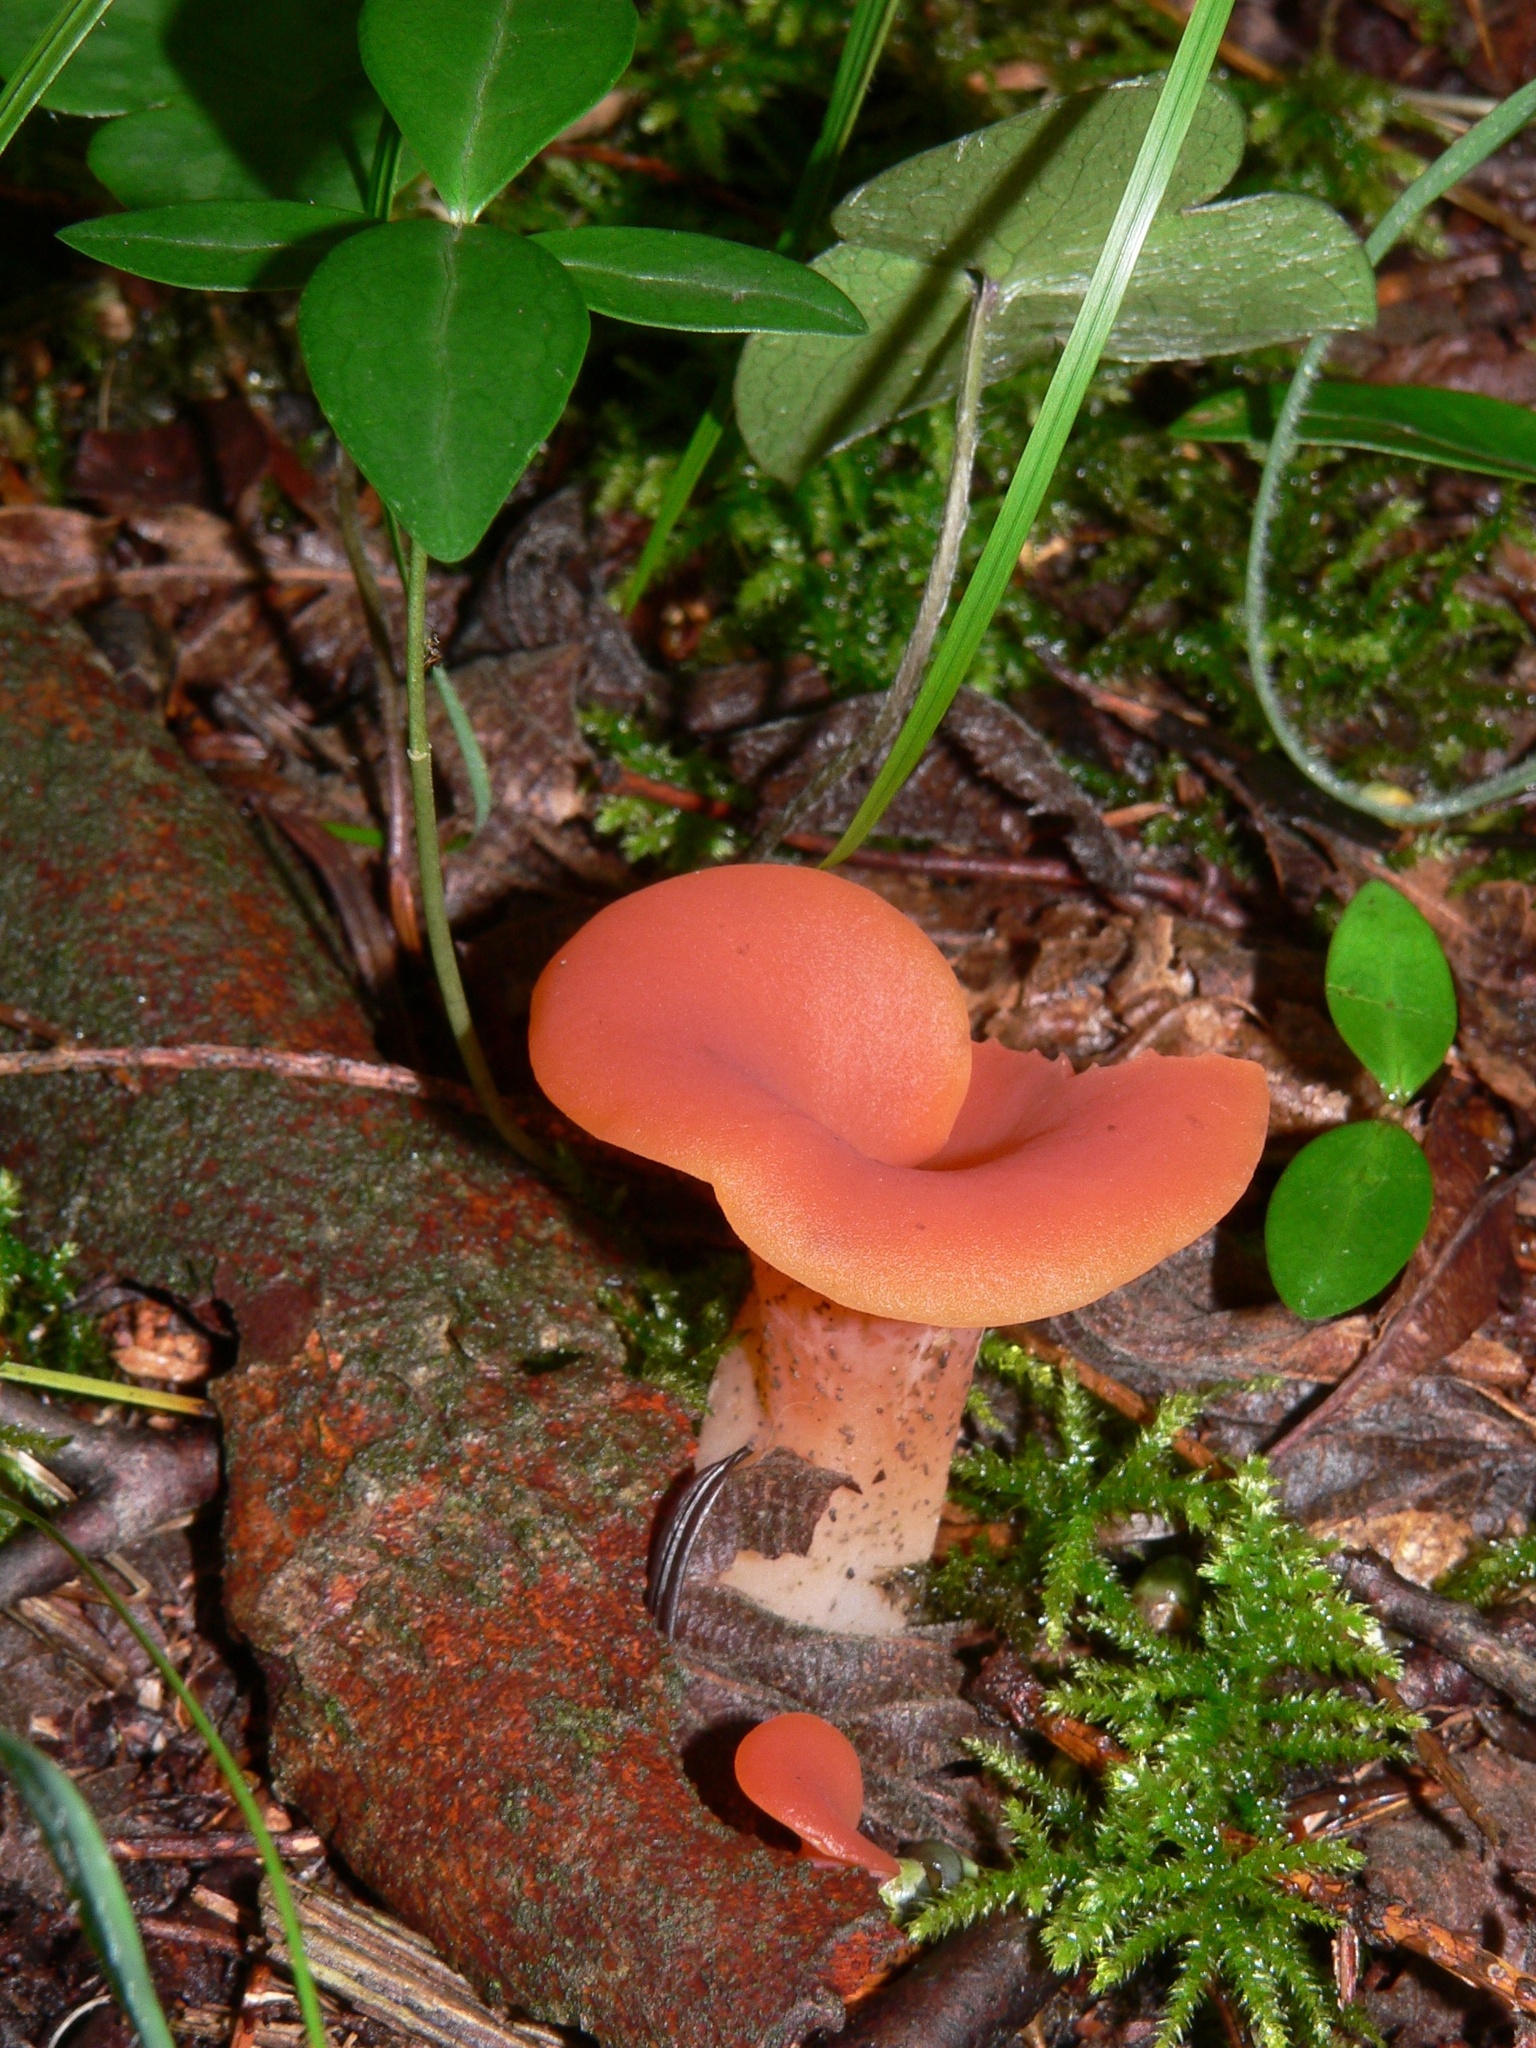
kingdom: Fungi
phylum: Basidiomycota
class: Agaricomycetes
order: Auriculariales
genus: Guepinia
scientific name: Guepinia helvelloides
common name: Salmon salad
